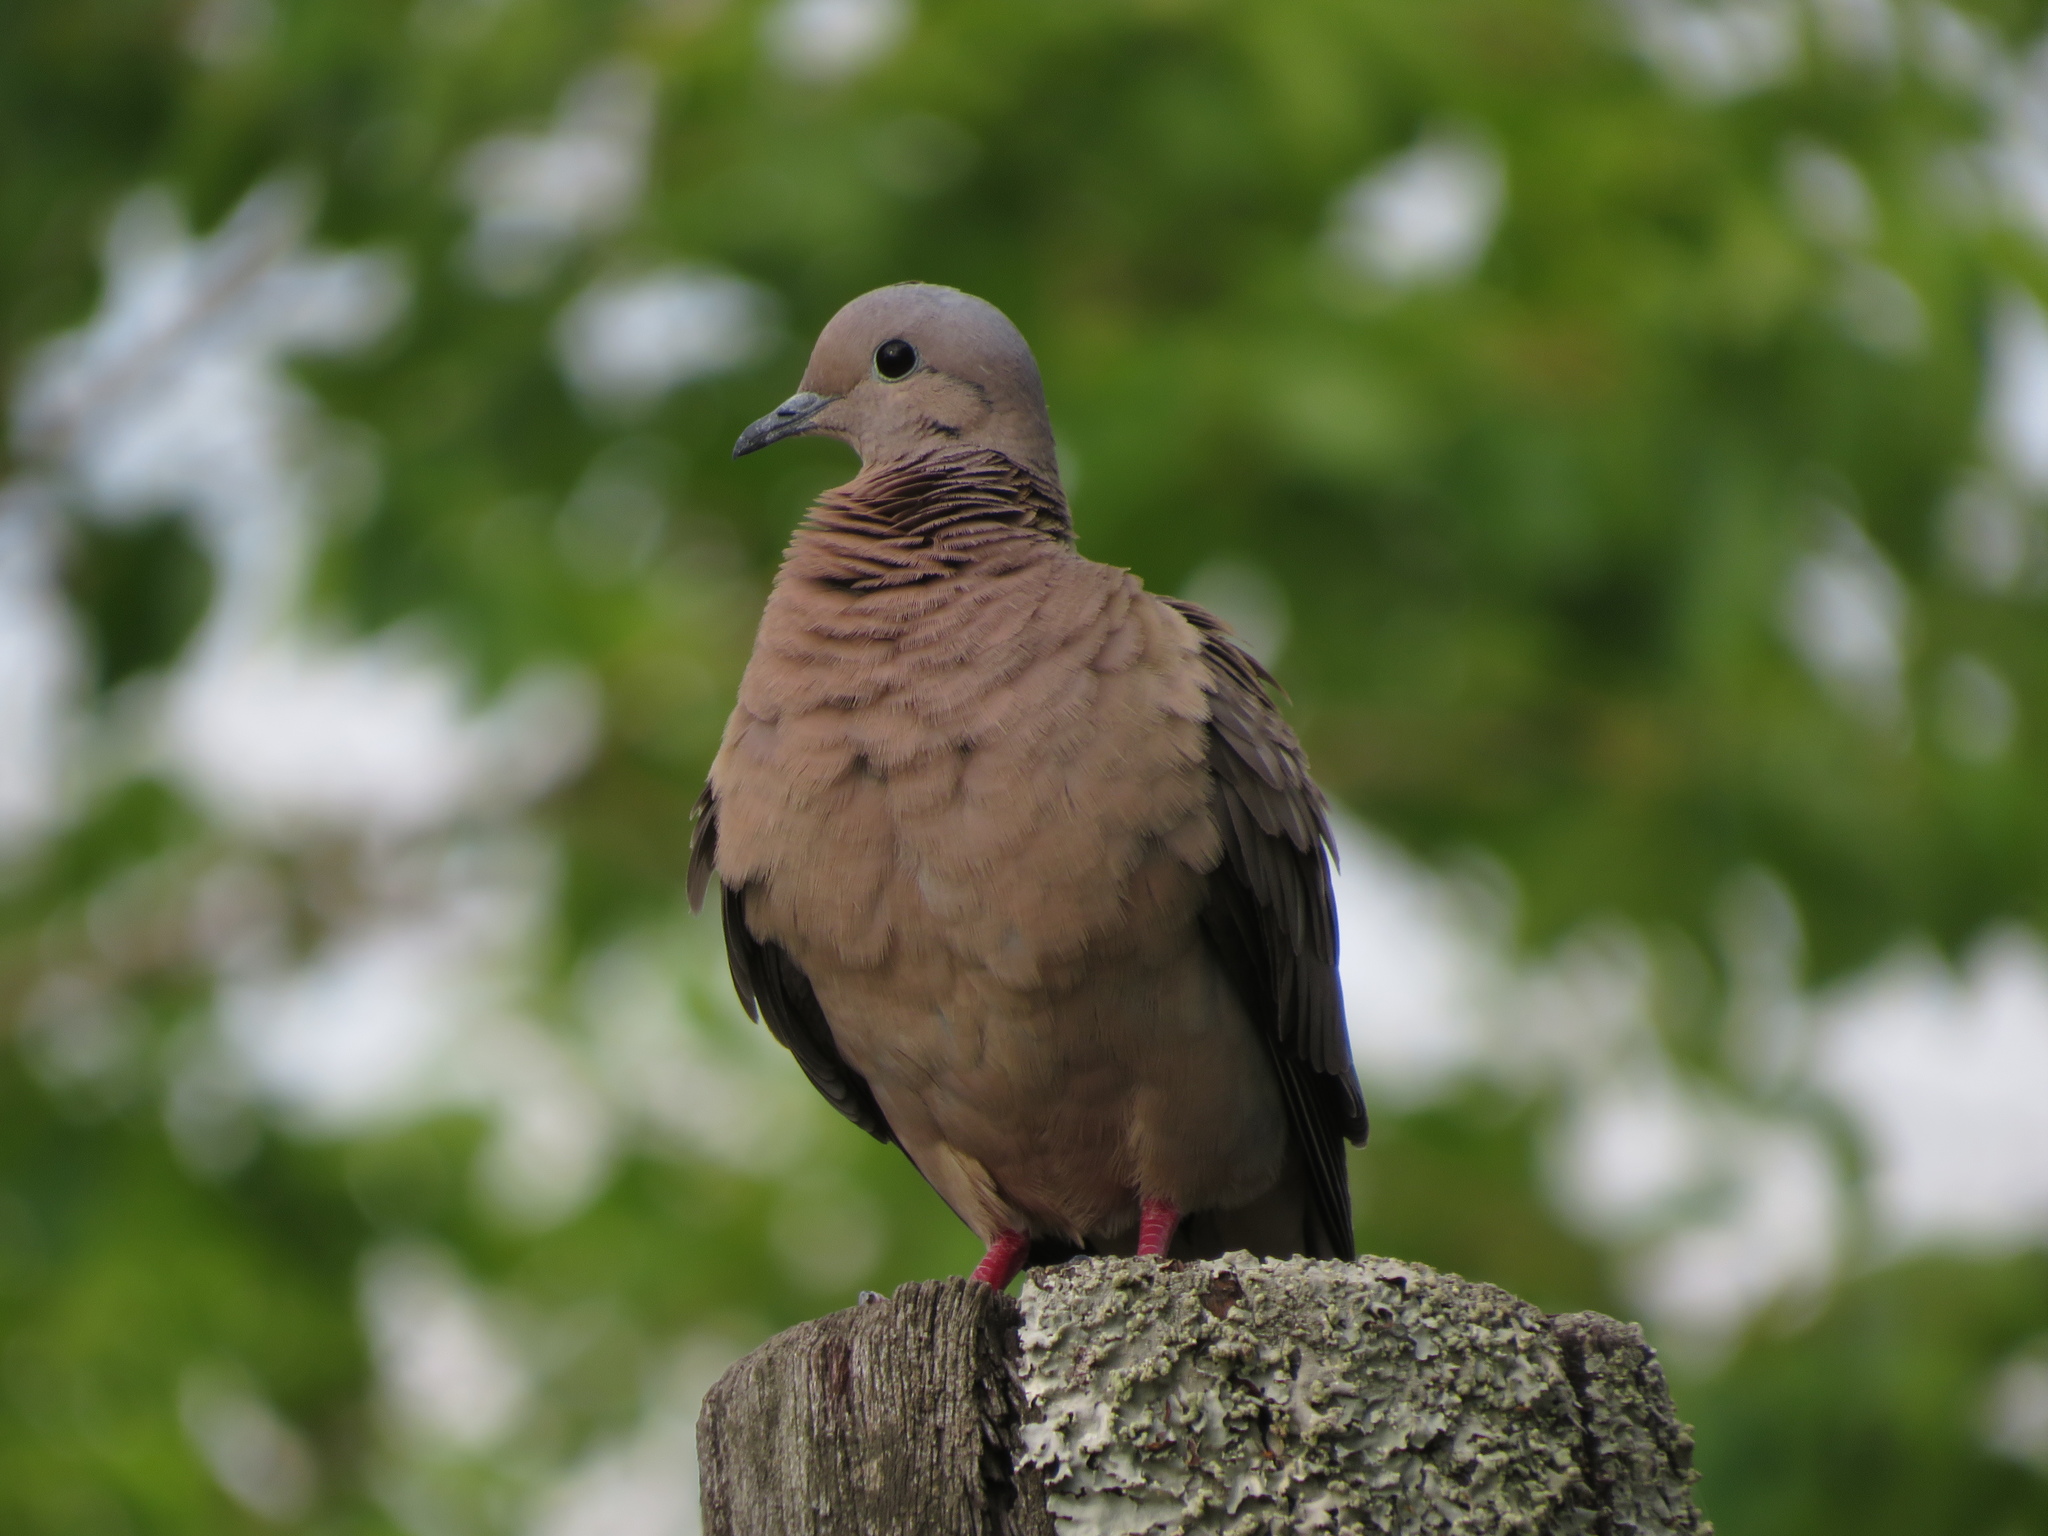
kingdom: Animalia
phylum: Chordata
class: Aves
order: Columbiformes
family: Columbidae
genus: Zenaida
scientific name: Zenaida auriculata
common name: Eared dove
